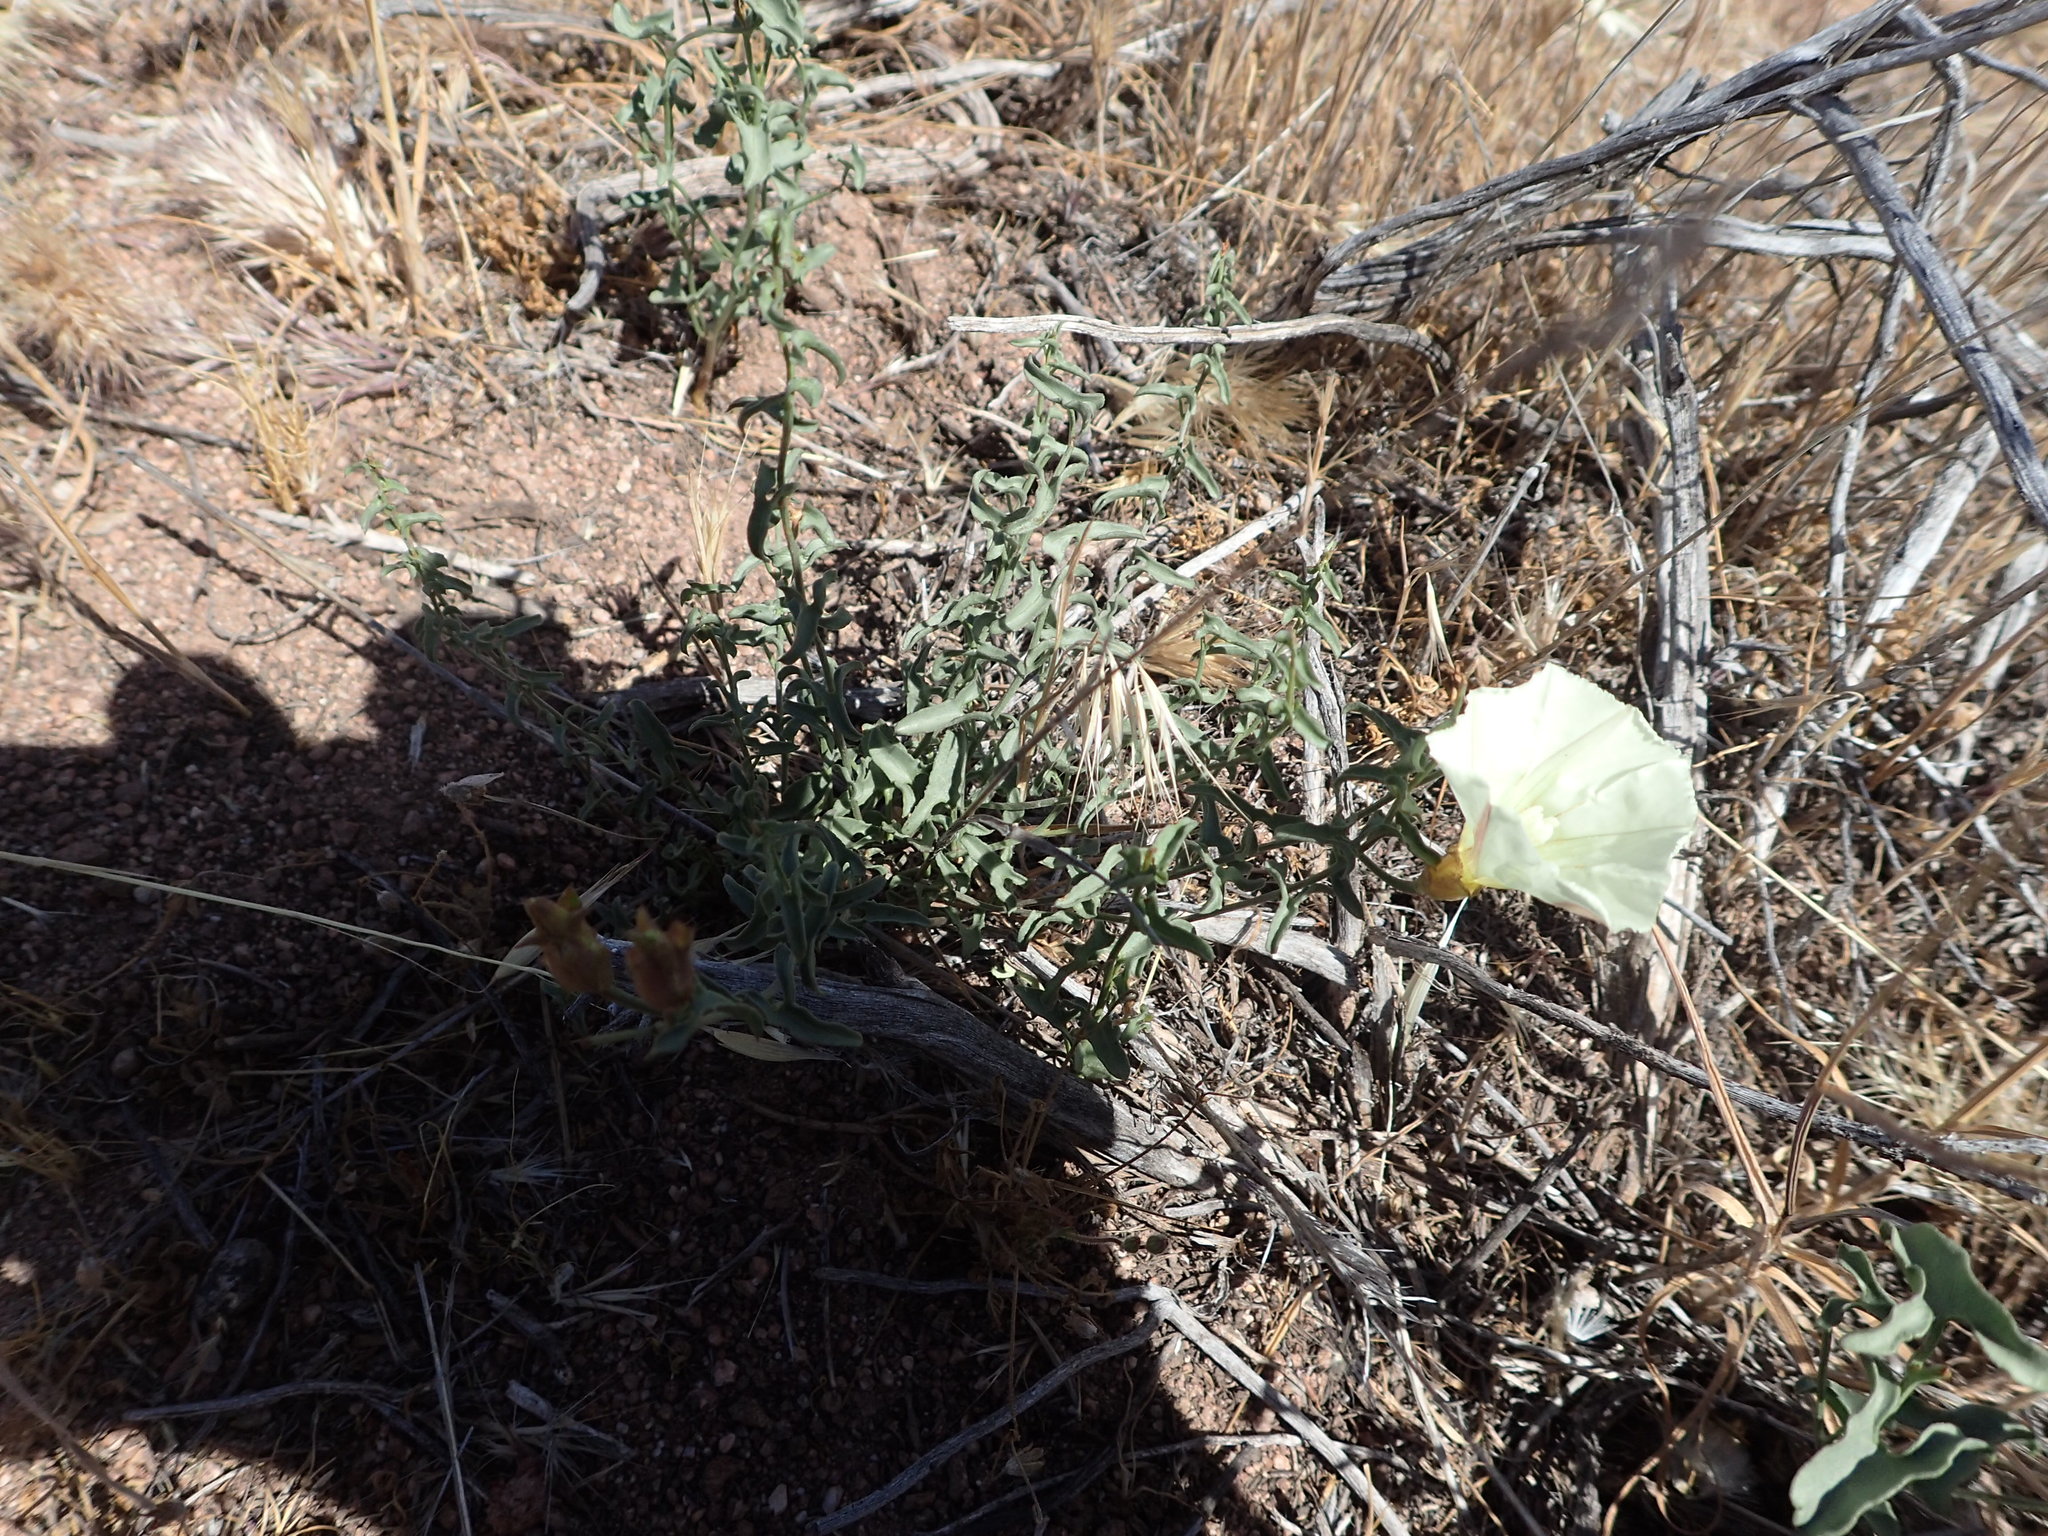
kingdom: Plantae
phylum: Tracheophyta
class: Magnoliopsida
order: Solanales
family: Convolvulaceae
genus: Calystegia
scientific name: Calystegia peirsonii
